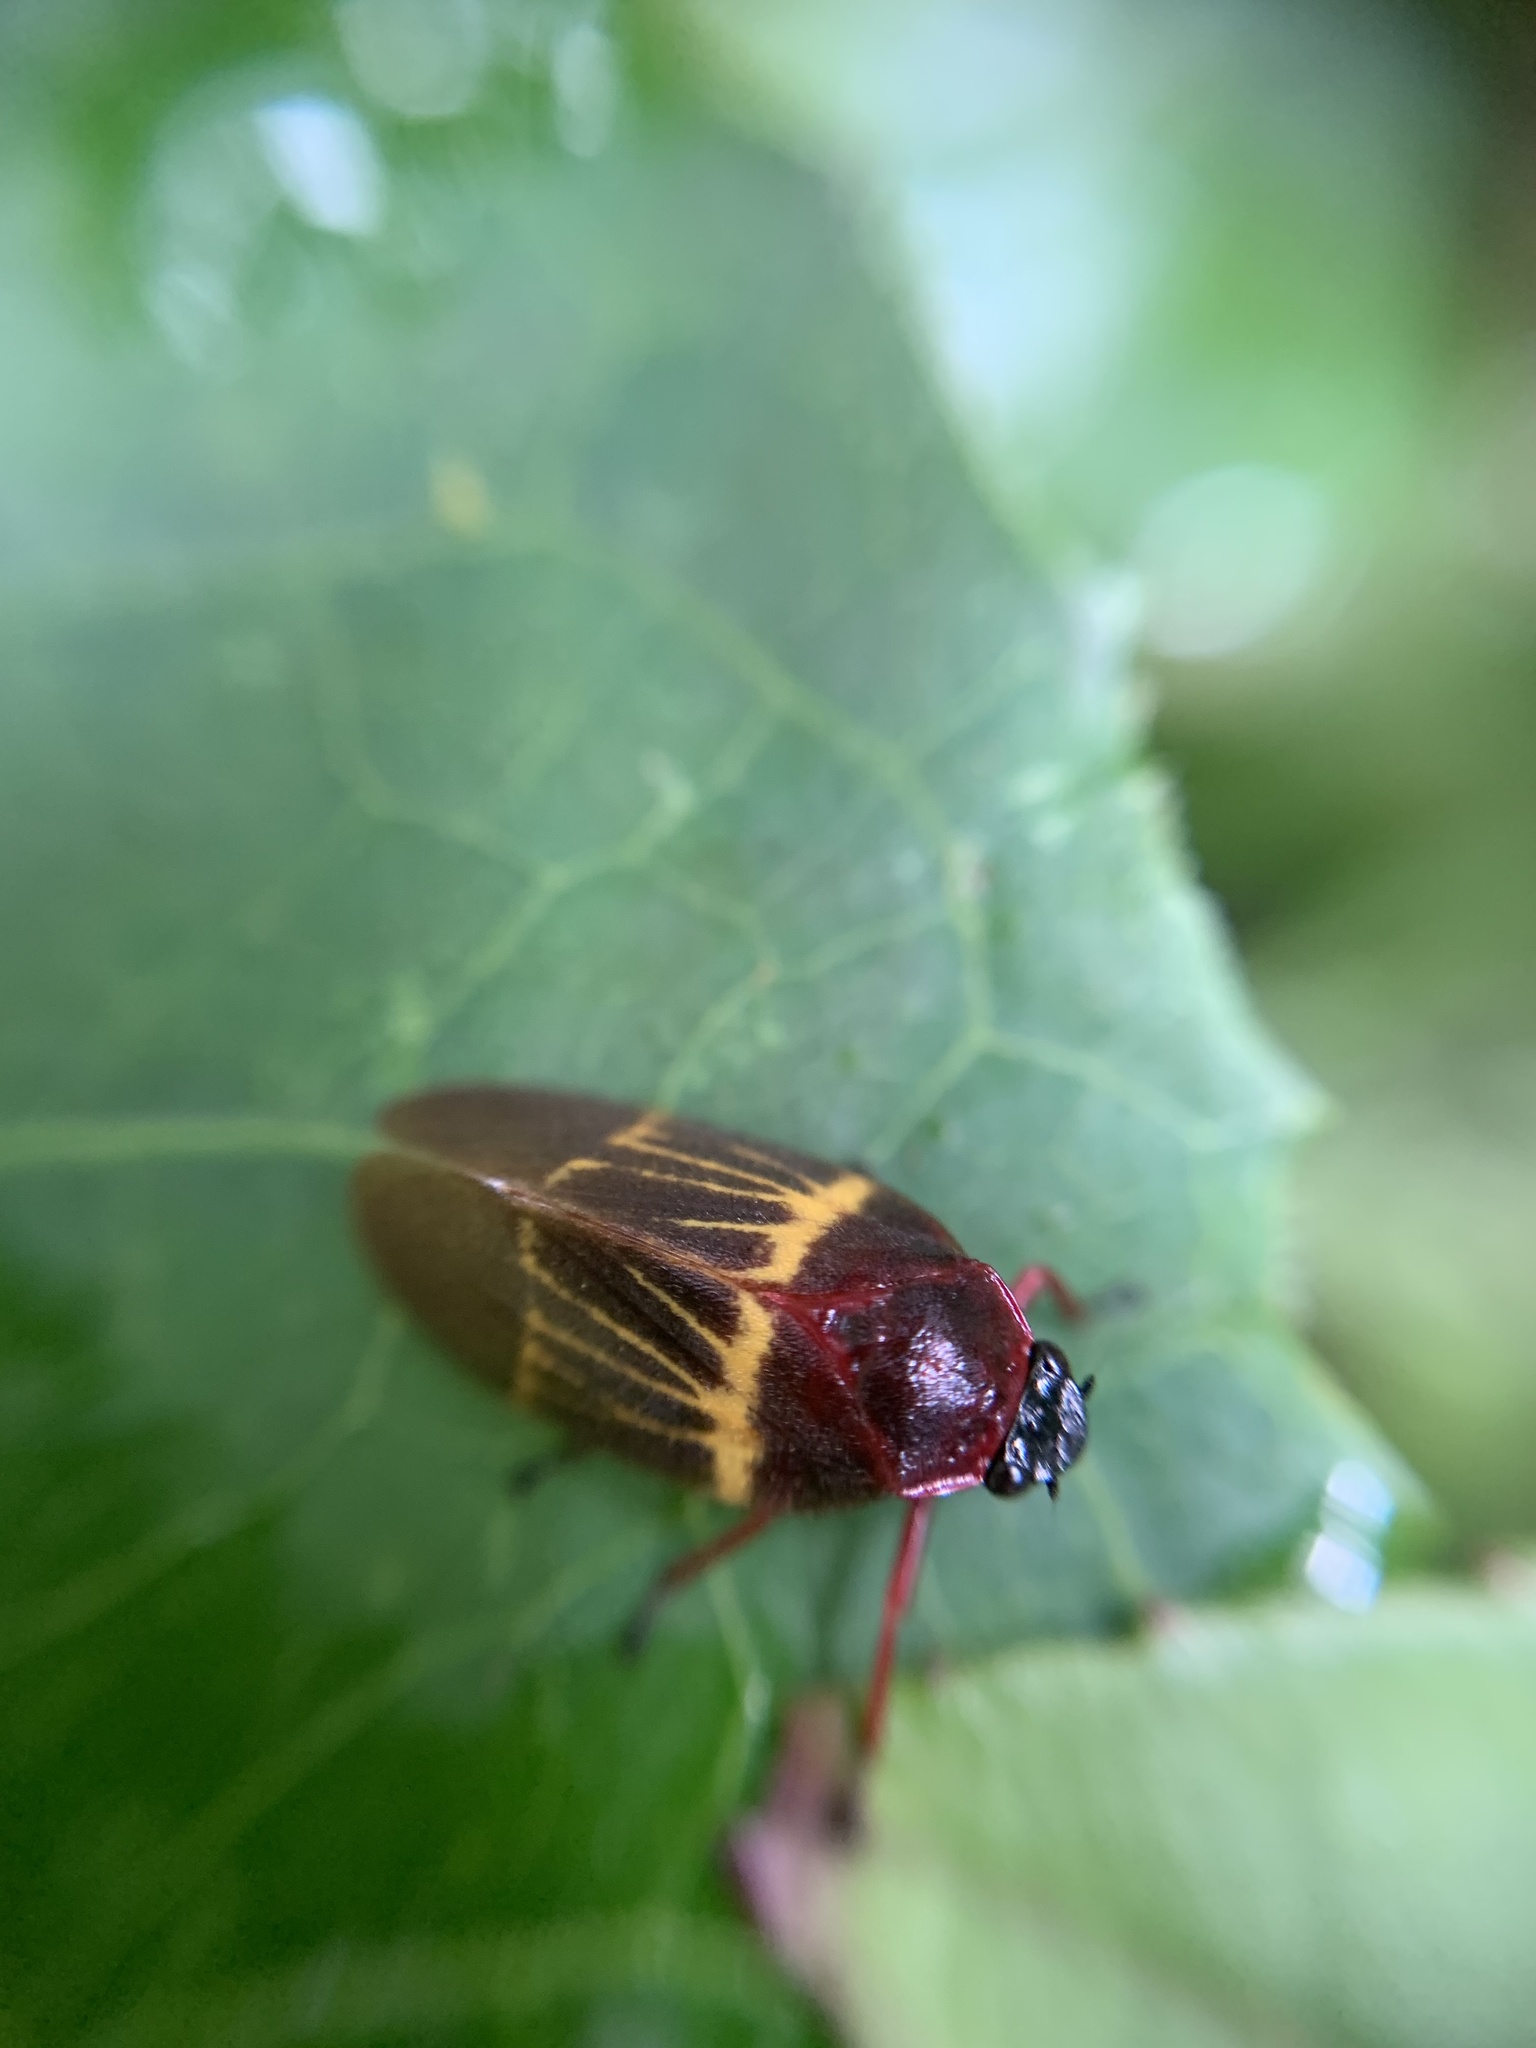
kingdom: Animalia
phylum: Arthropoda
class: Insecta
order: Hemiptera
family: Cercopidae
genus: Sphenorhina
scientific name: Sphenorhina clarivenosa
